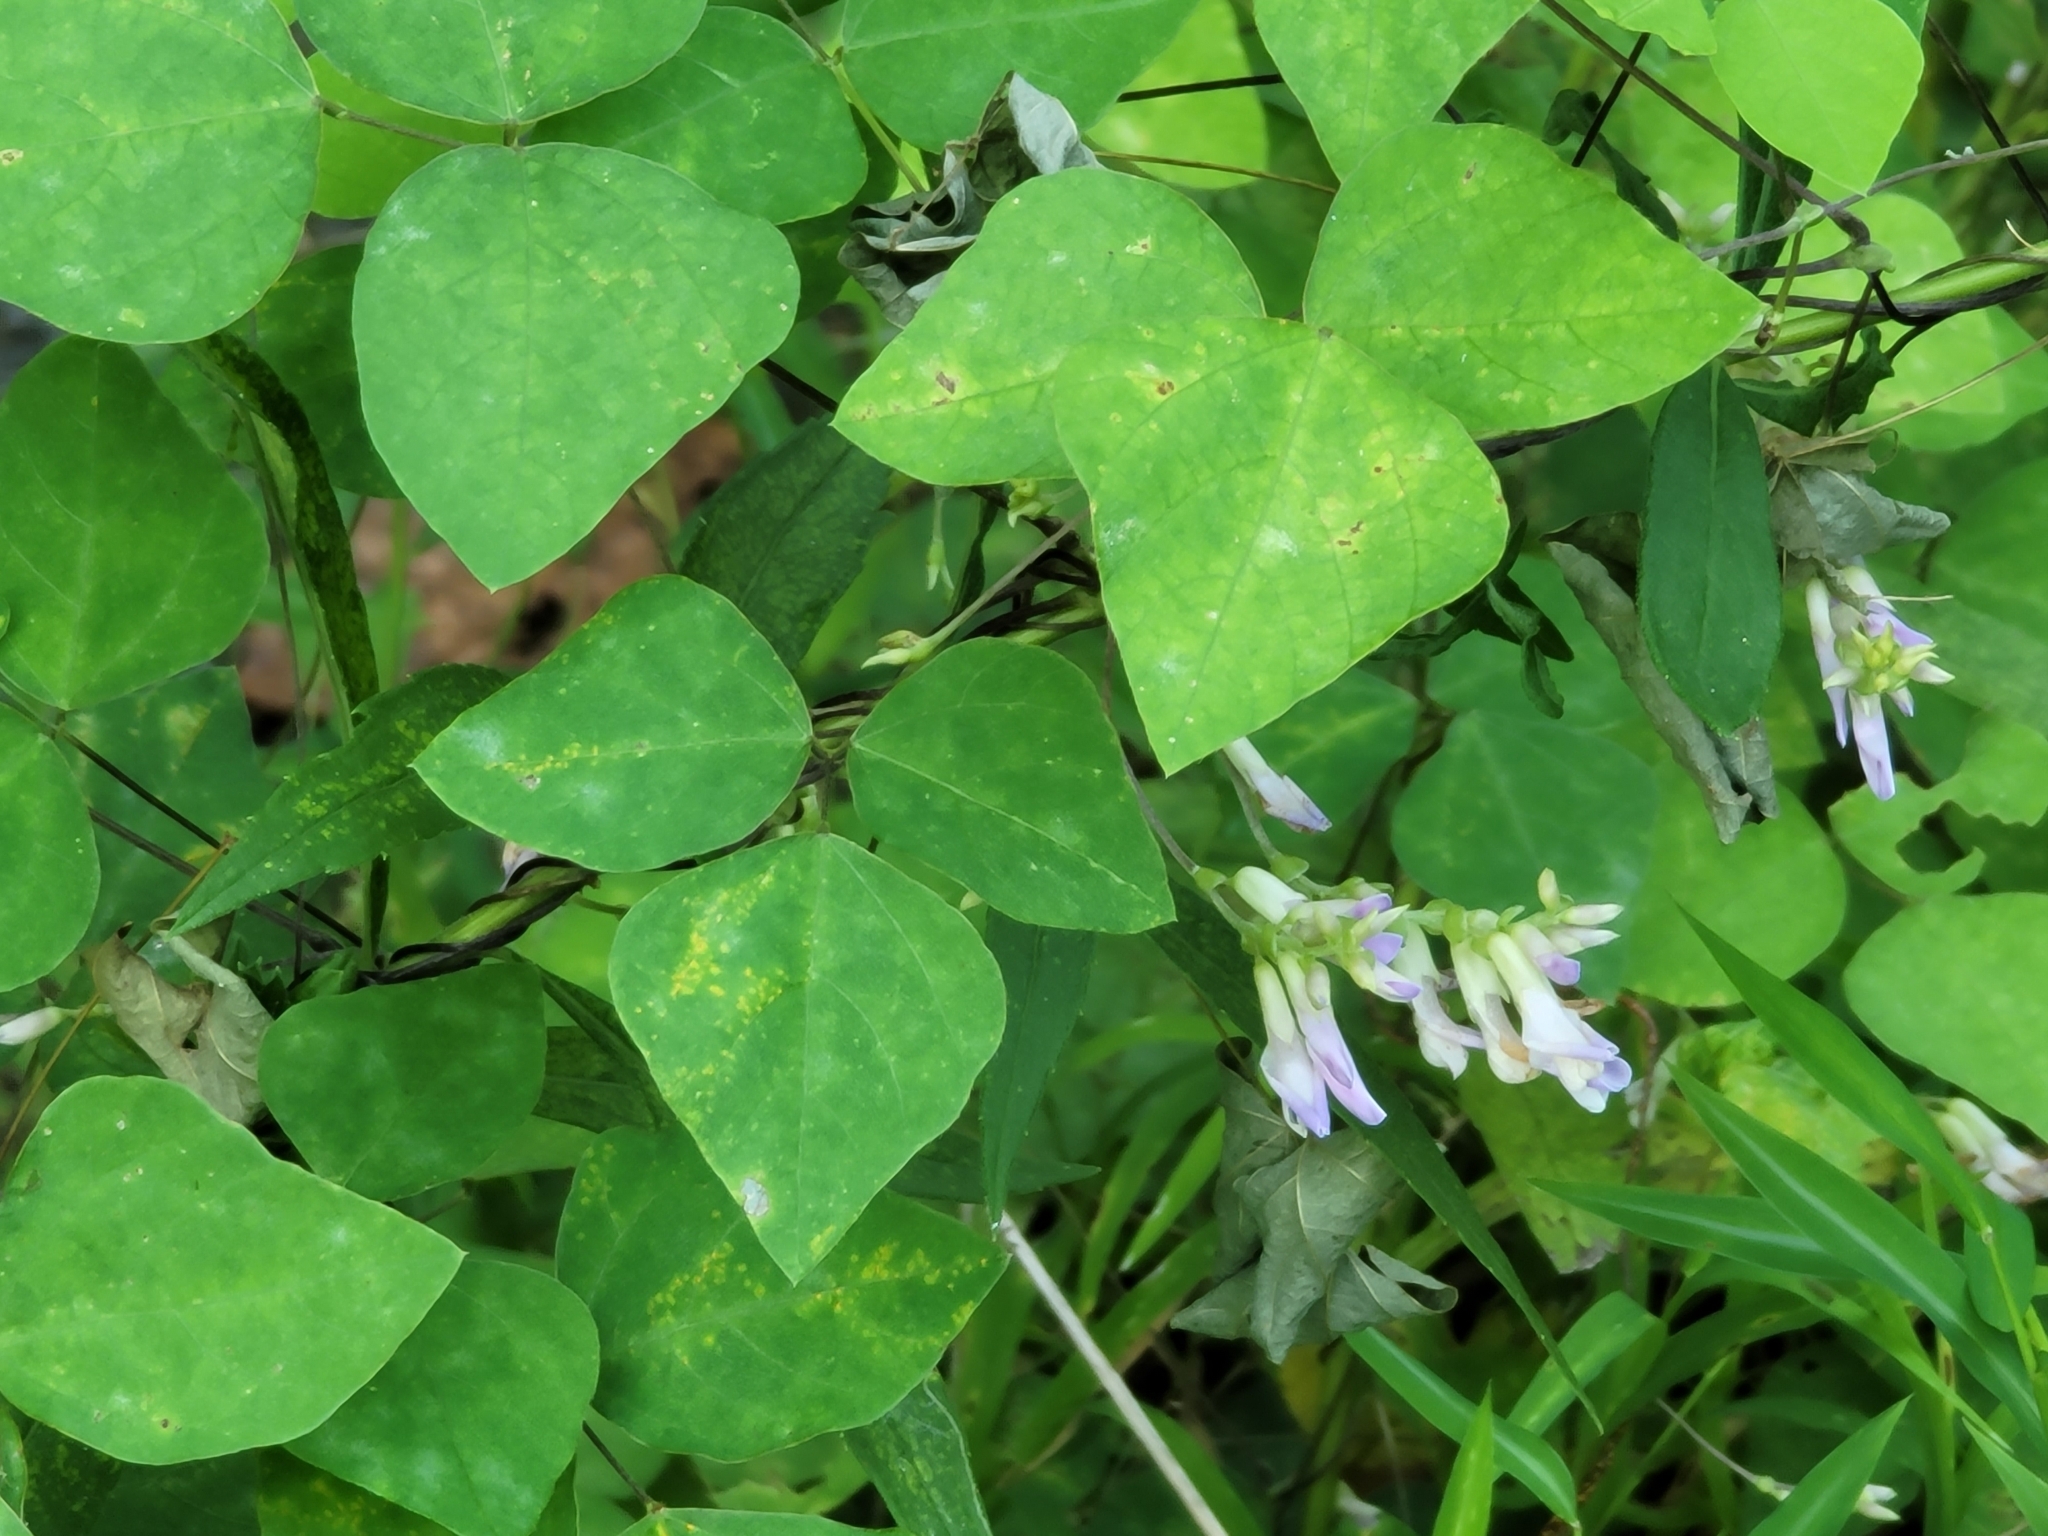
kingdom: Plantae
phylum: Tracheophyta
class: Magnoliopsida
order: Fabales
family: Fabaceae
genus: Amphicarpaea
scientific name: Amphicarpaea bracteata
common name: American hog peanut
